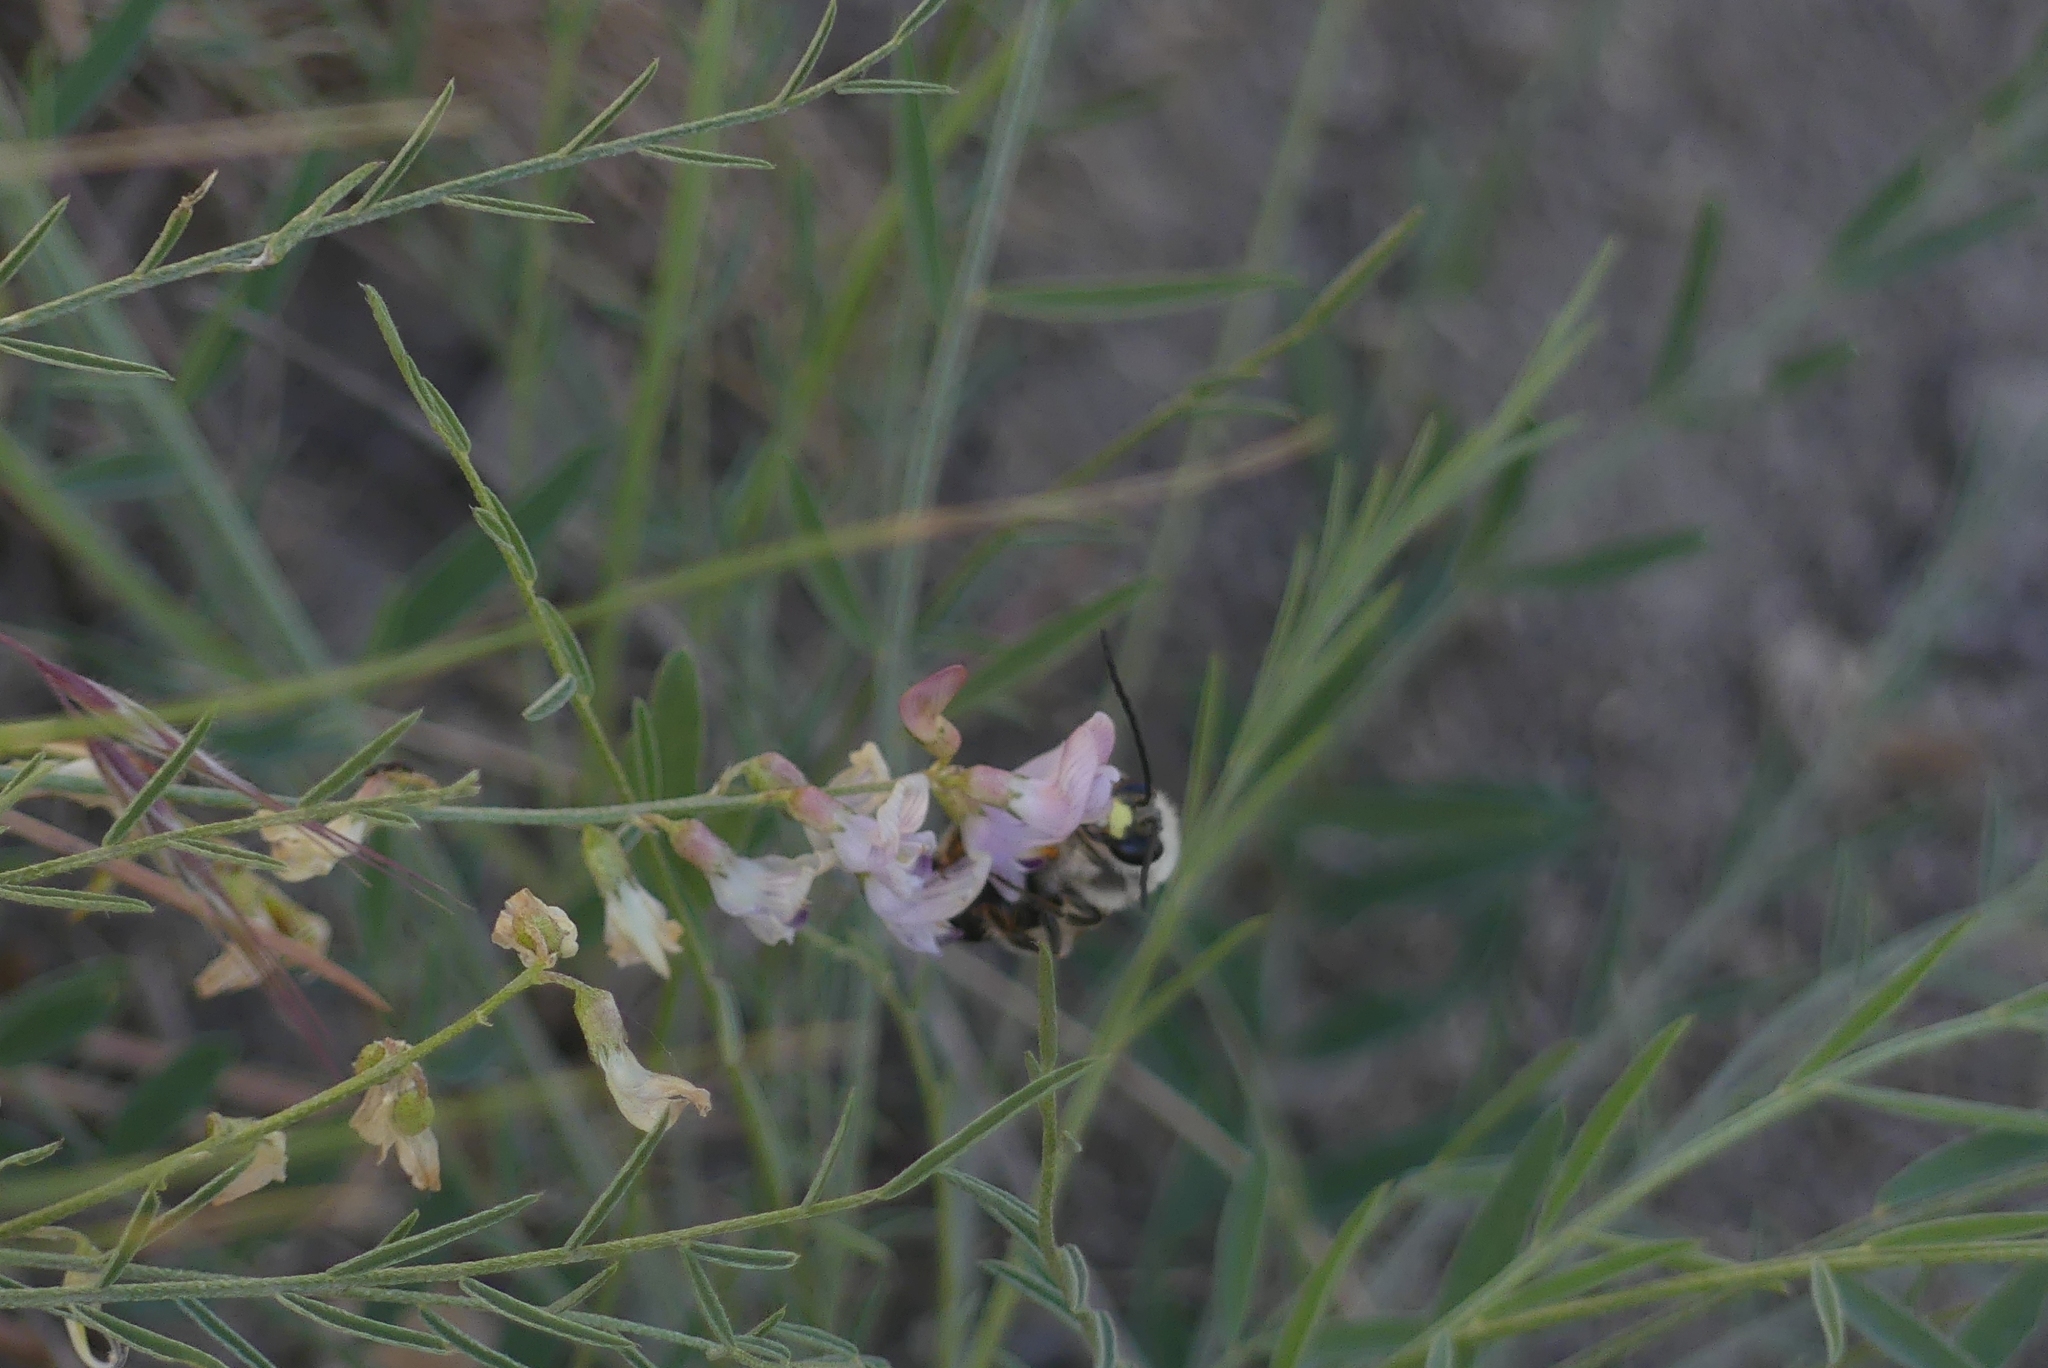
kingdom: Animalia
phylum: Arthropoda
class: Insecta
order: Hymenoptera
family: Apidae
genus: Eucera
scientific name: Eucera edwardsii
